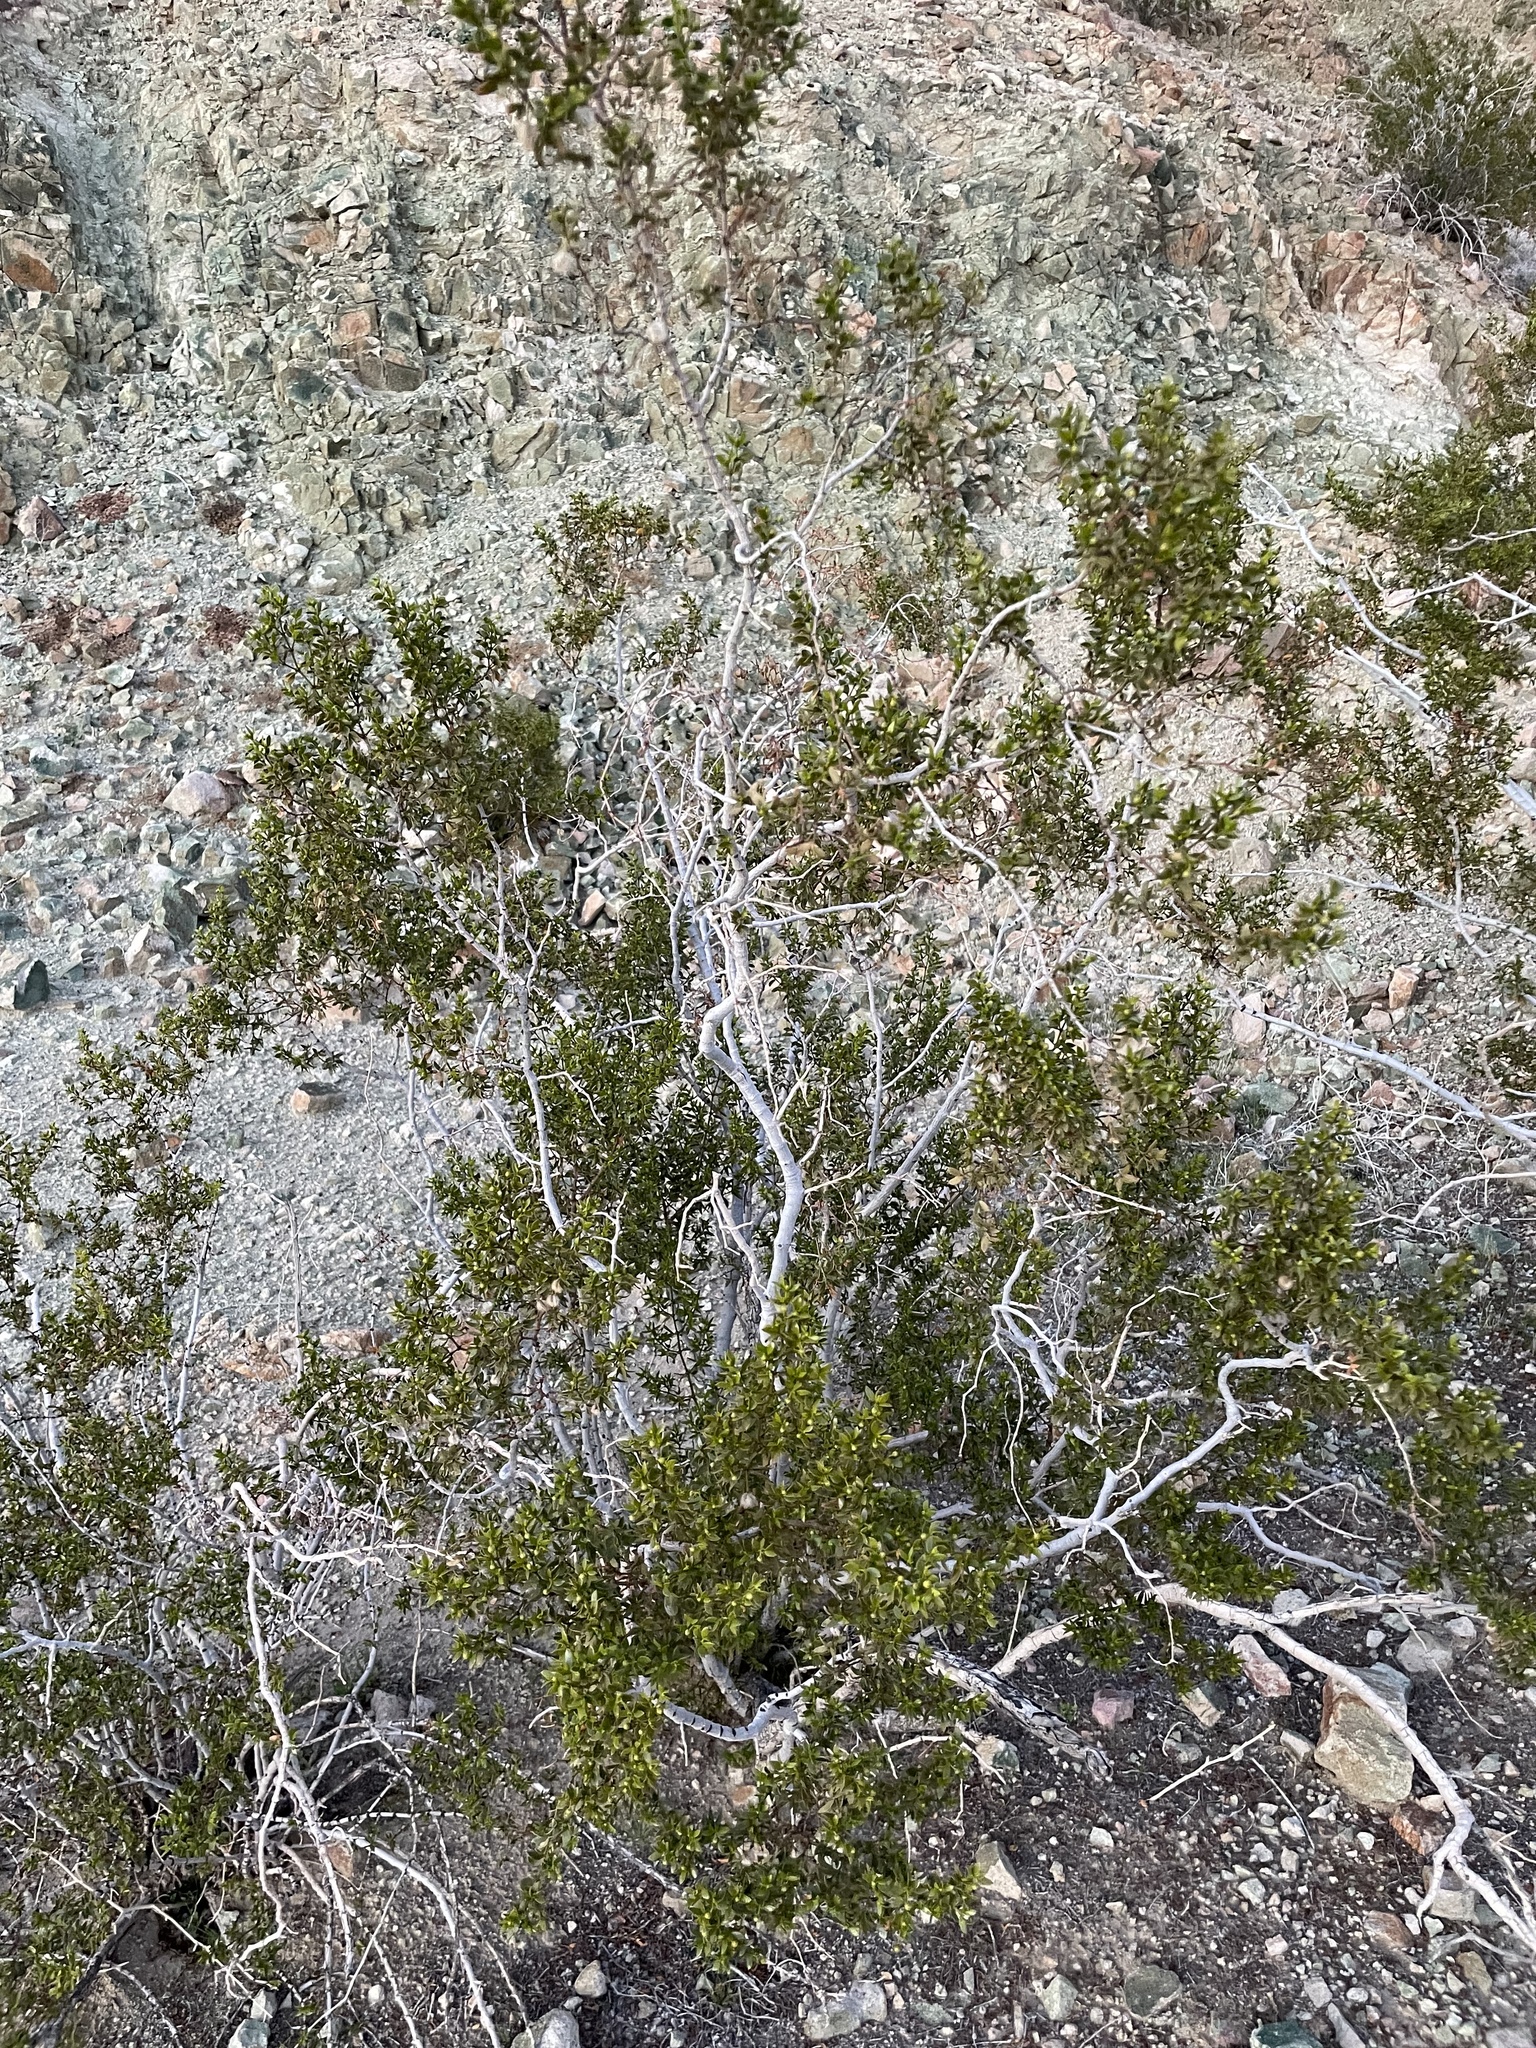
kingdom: Plantae
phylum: Tracheophyta
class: Magnoliopsida
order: Zygophyllales
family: Zygophyllaceae
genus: Larrea
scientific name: Larrea tridentata
